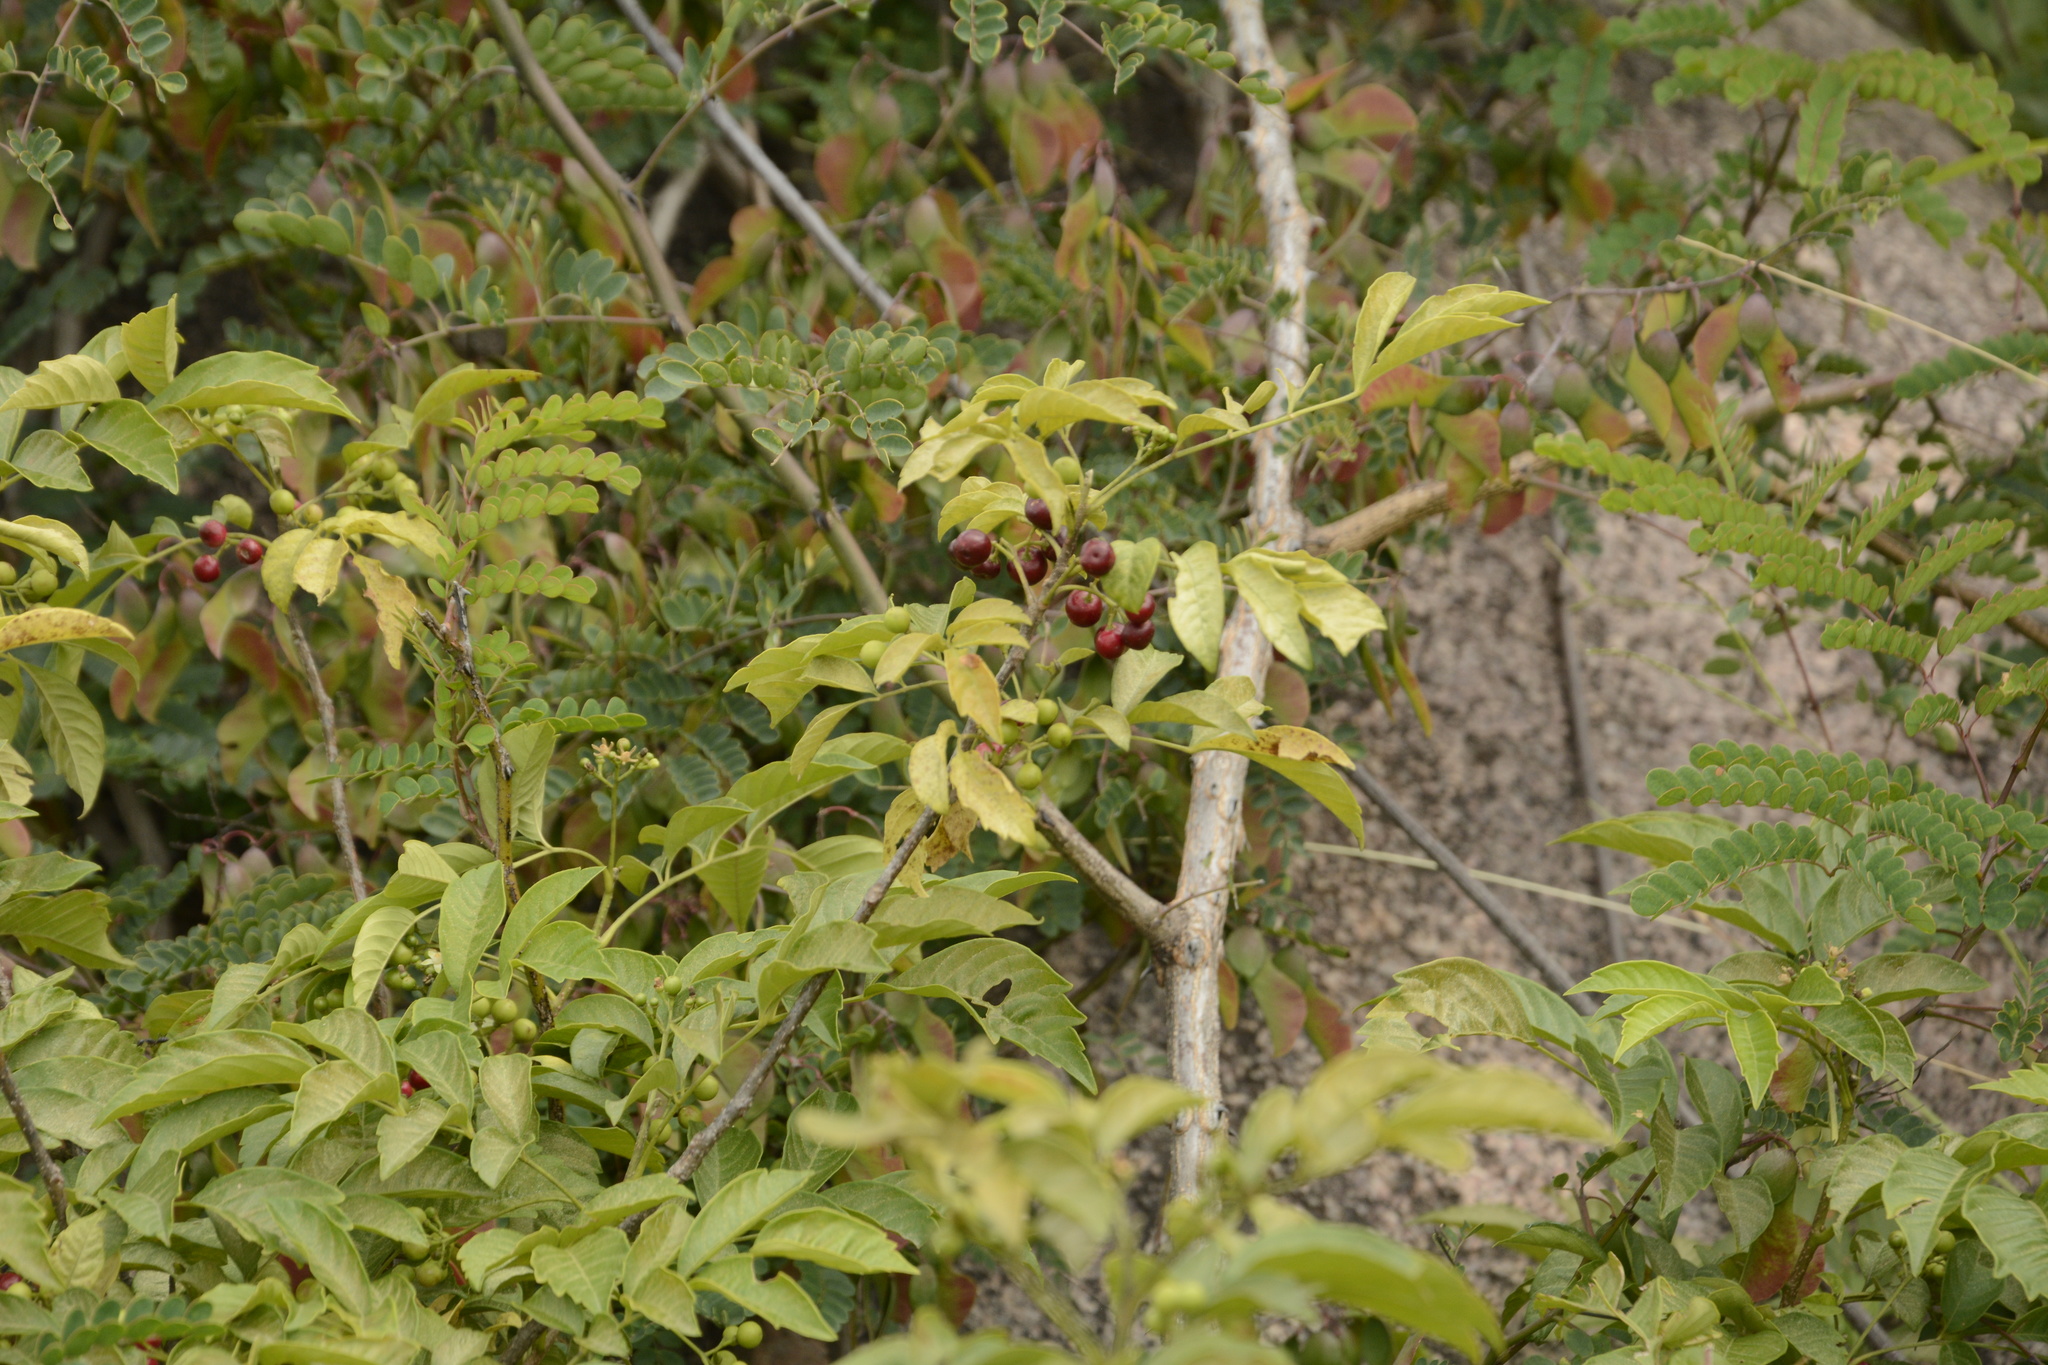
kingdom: Plantae
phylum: Tracheophyta
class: Magnoliopsida
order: Sapindales
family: Meliaceae
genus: Cipadessa
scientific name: Cipadessa baccifera
